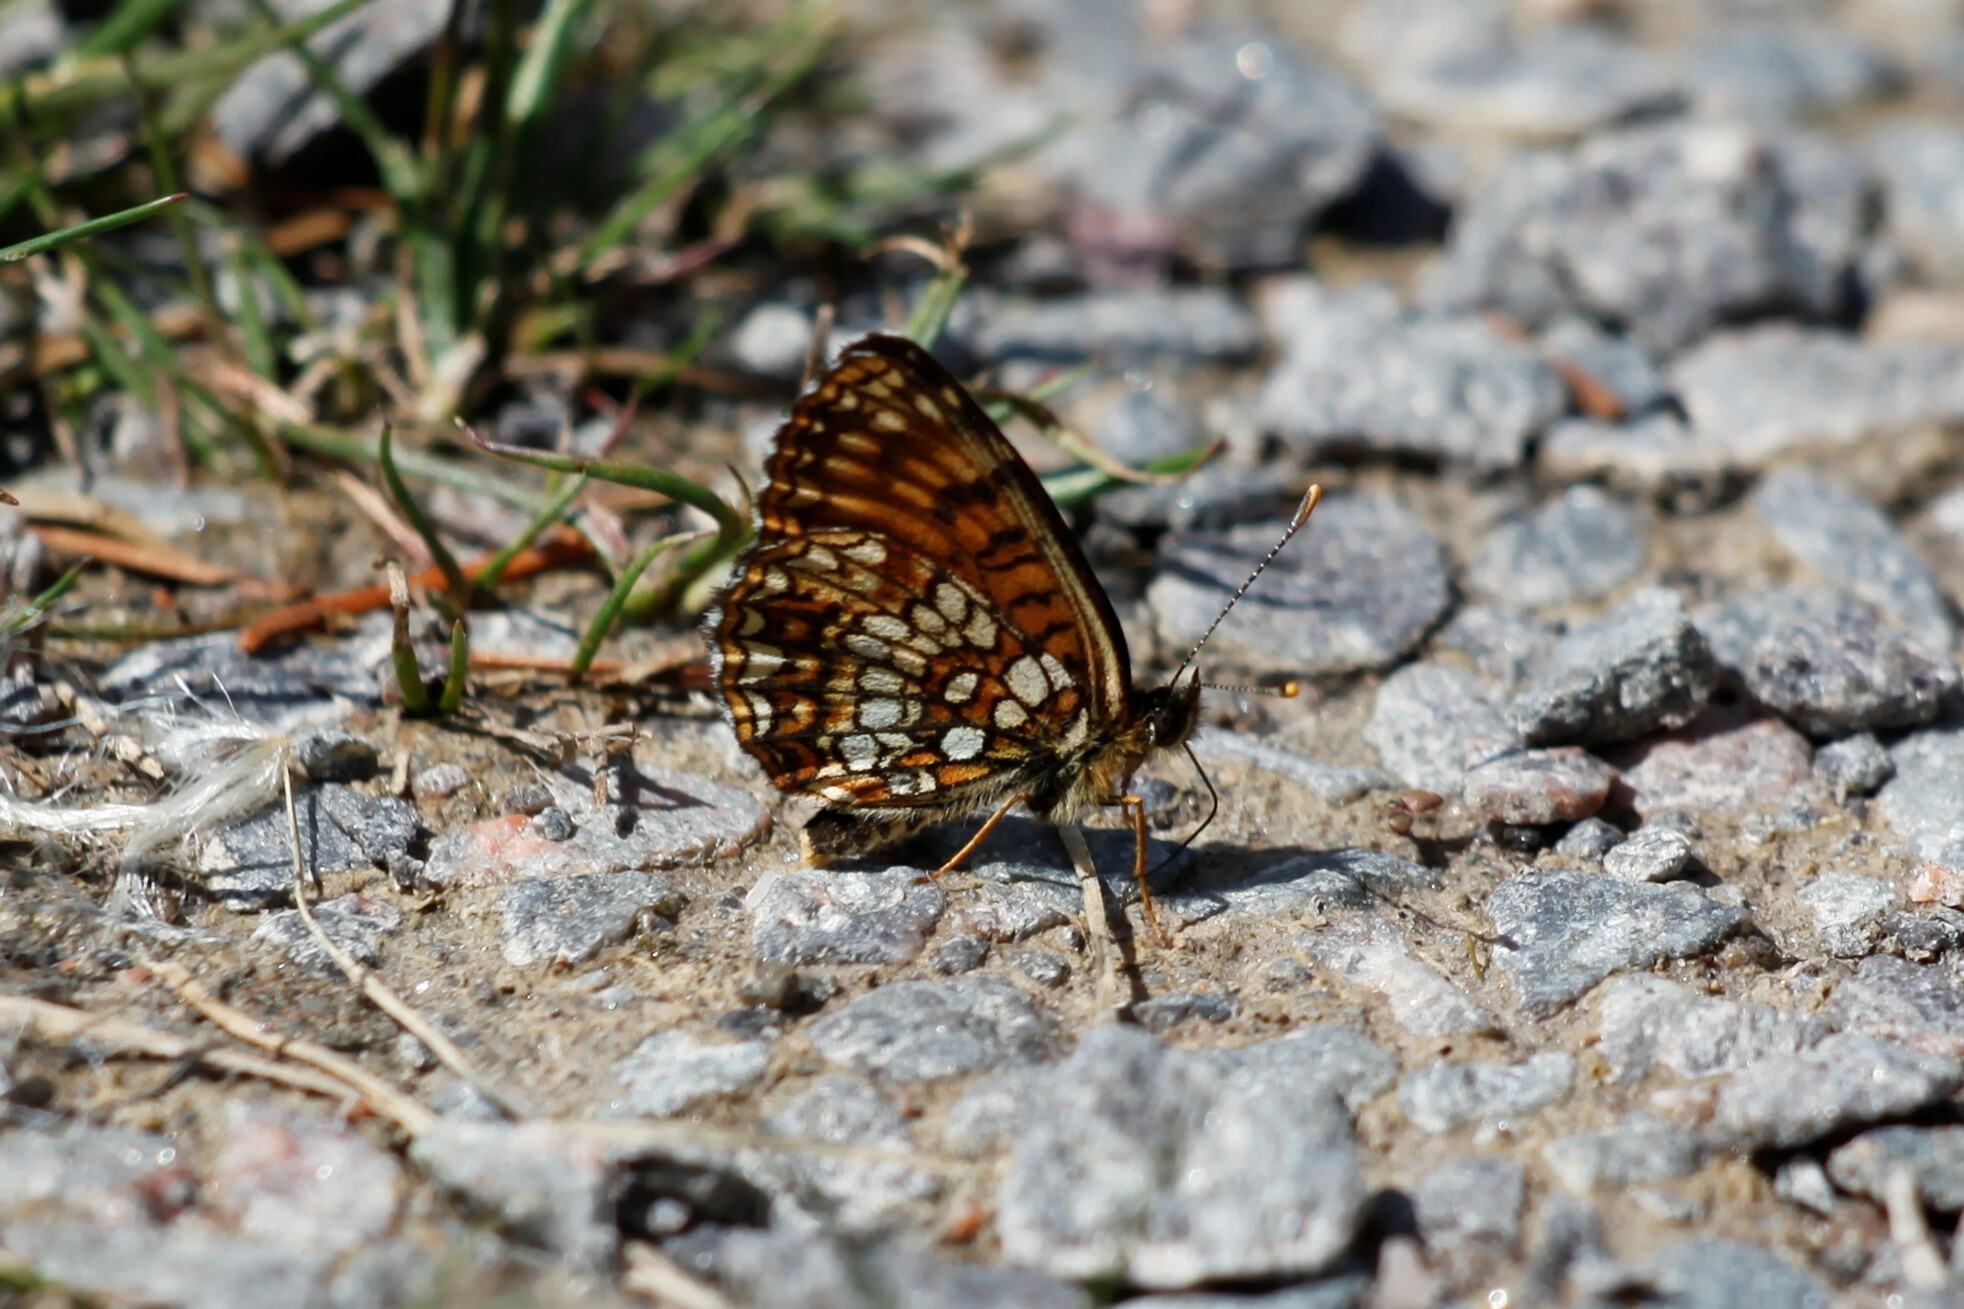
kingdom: Animalia
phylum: Arthropoda
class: Insecta
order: Lepidoptera
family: Nymphalidae
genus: Melitaea
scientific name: Melitaea diamina
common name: False heath fritillary
